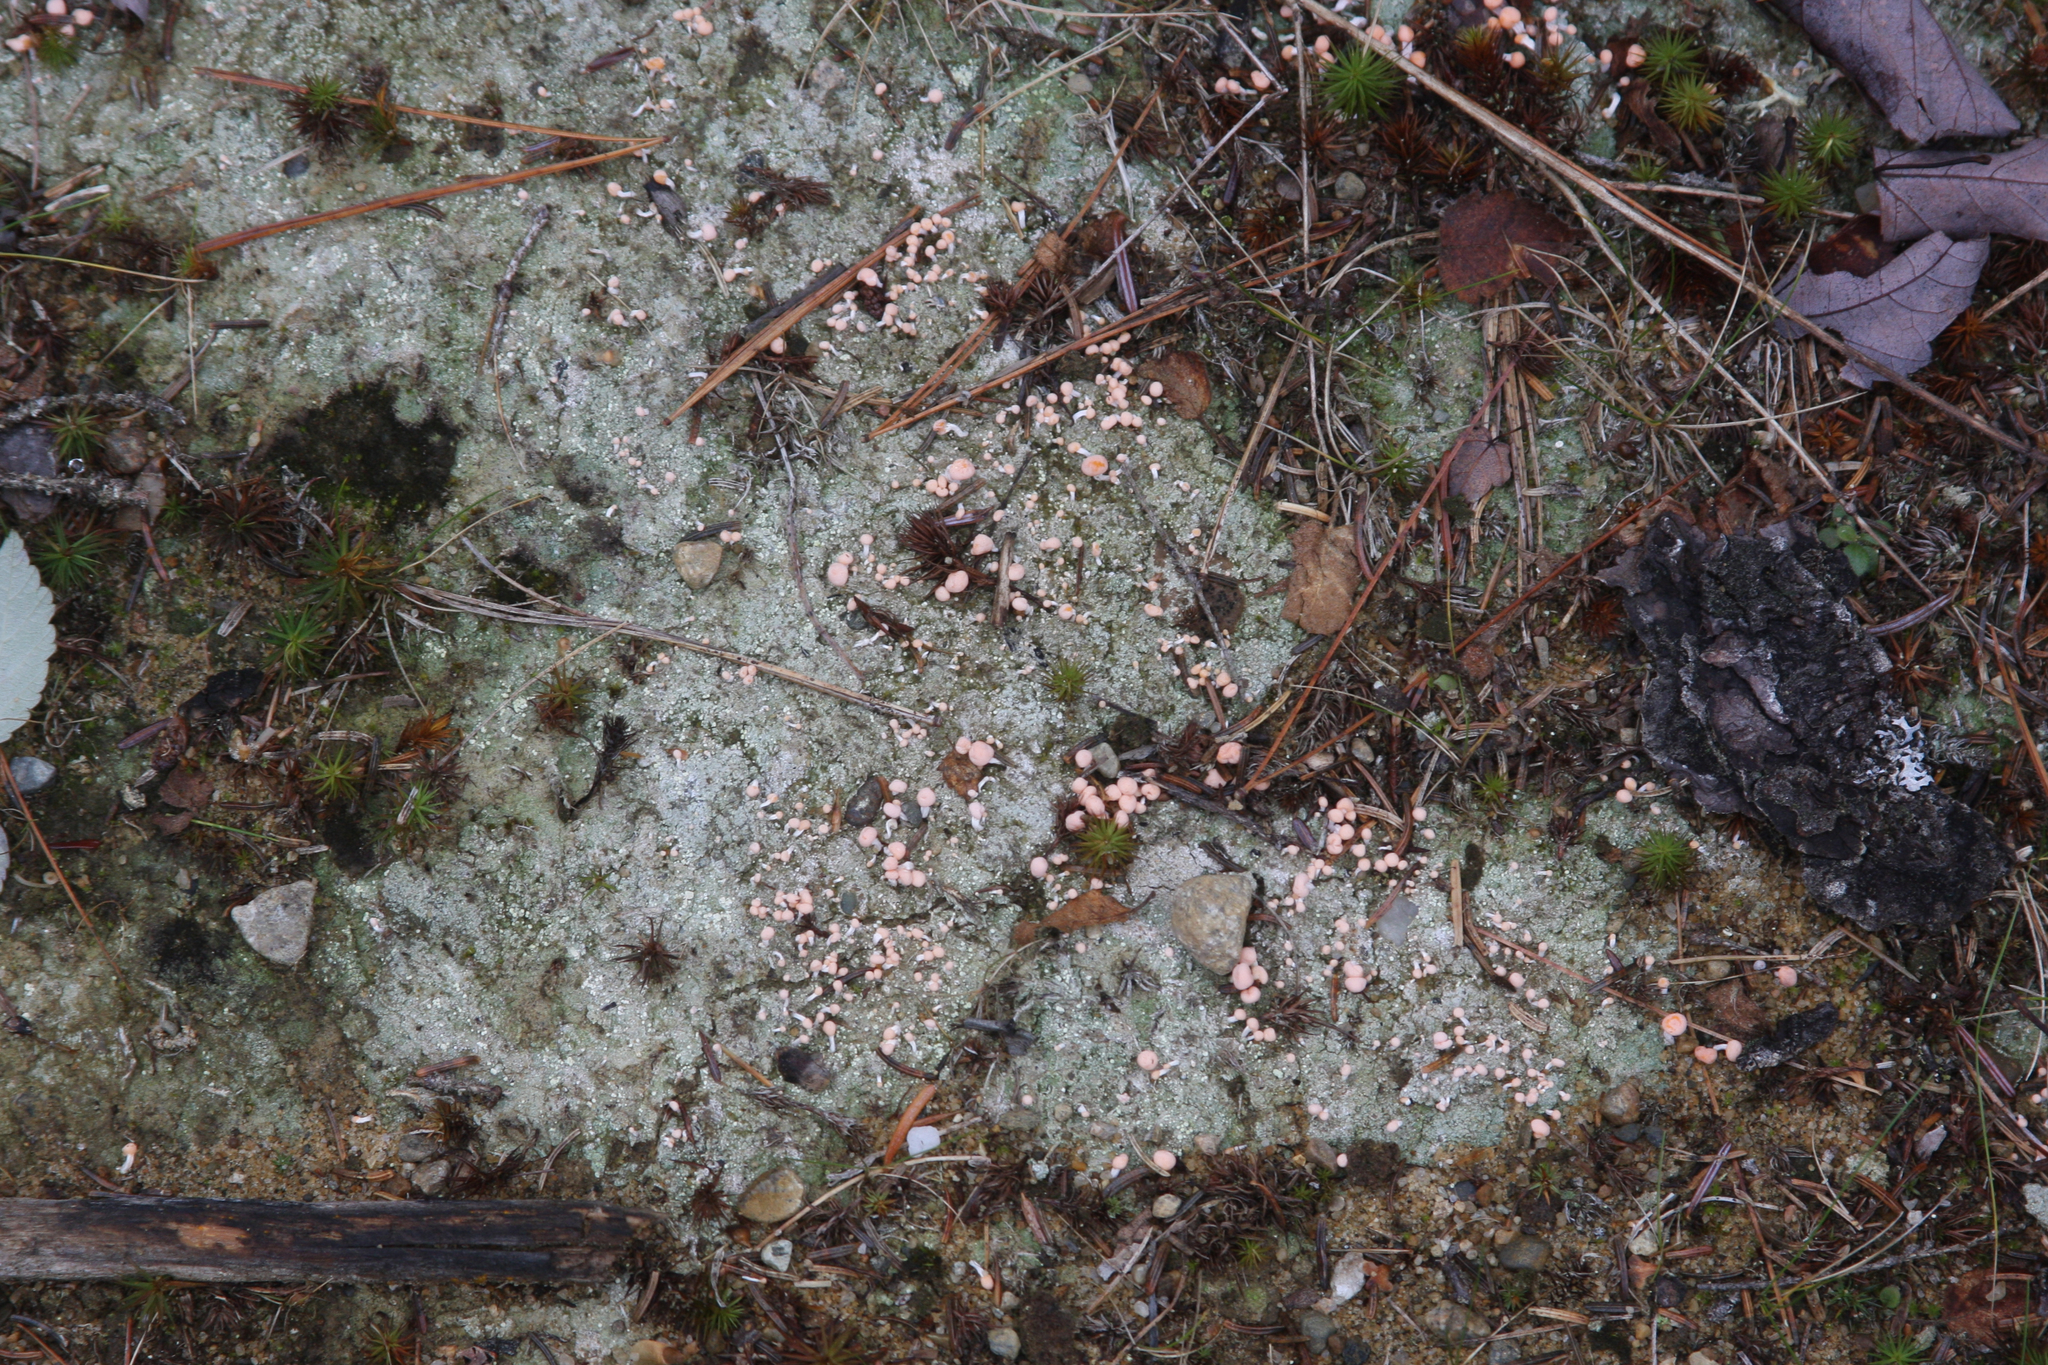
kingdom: Fungi
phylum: Ascomycota
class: Lecanoromycetes
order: Pertusariales
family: Icmadophilaceae
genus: Dibaeis
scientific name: Dibaeis baeomyces
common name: Pink earth lichen
